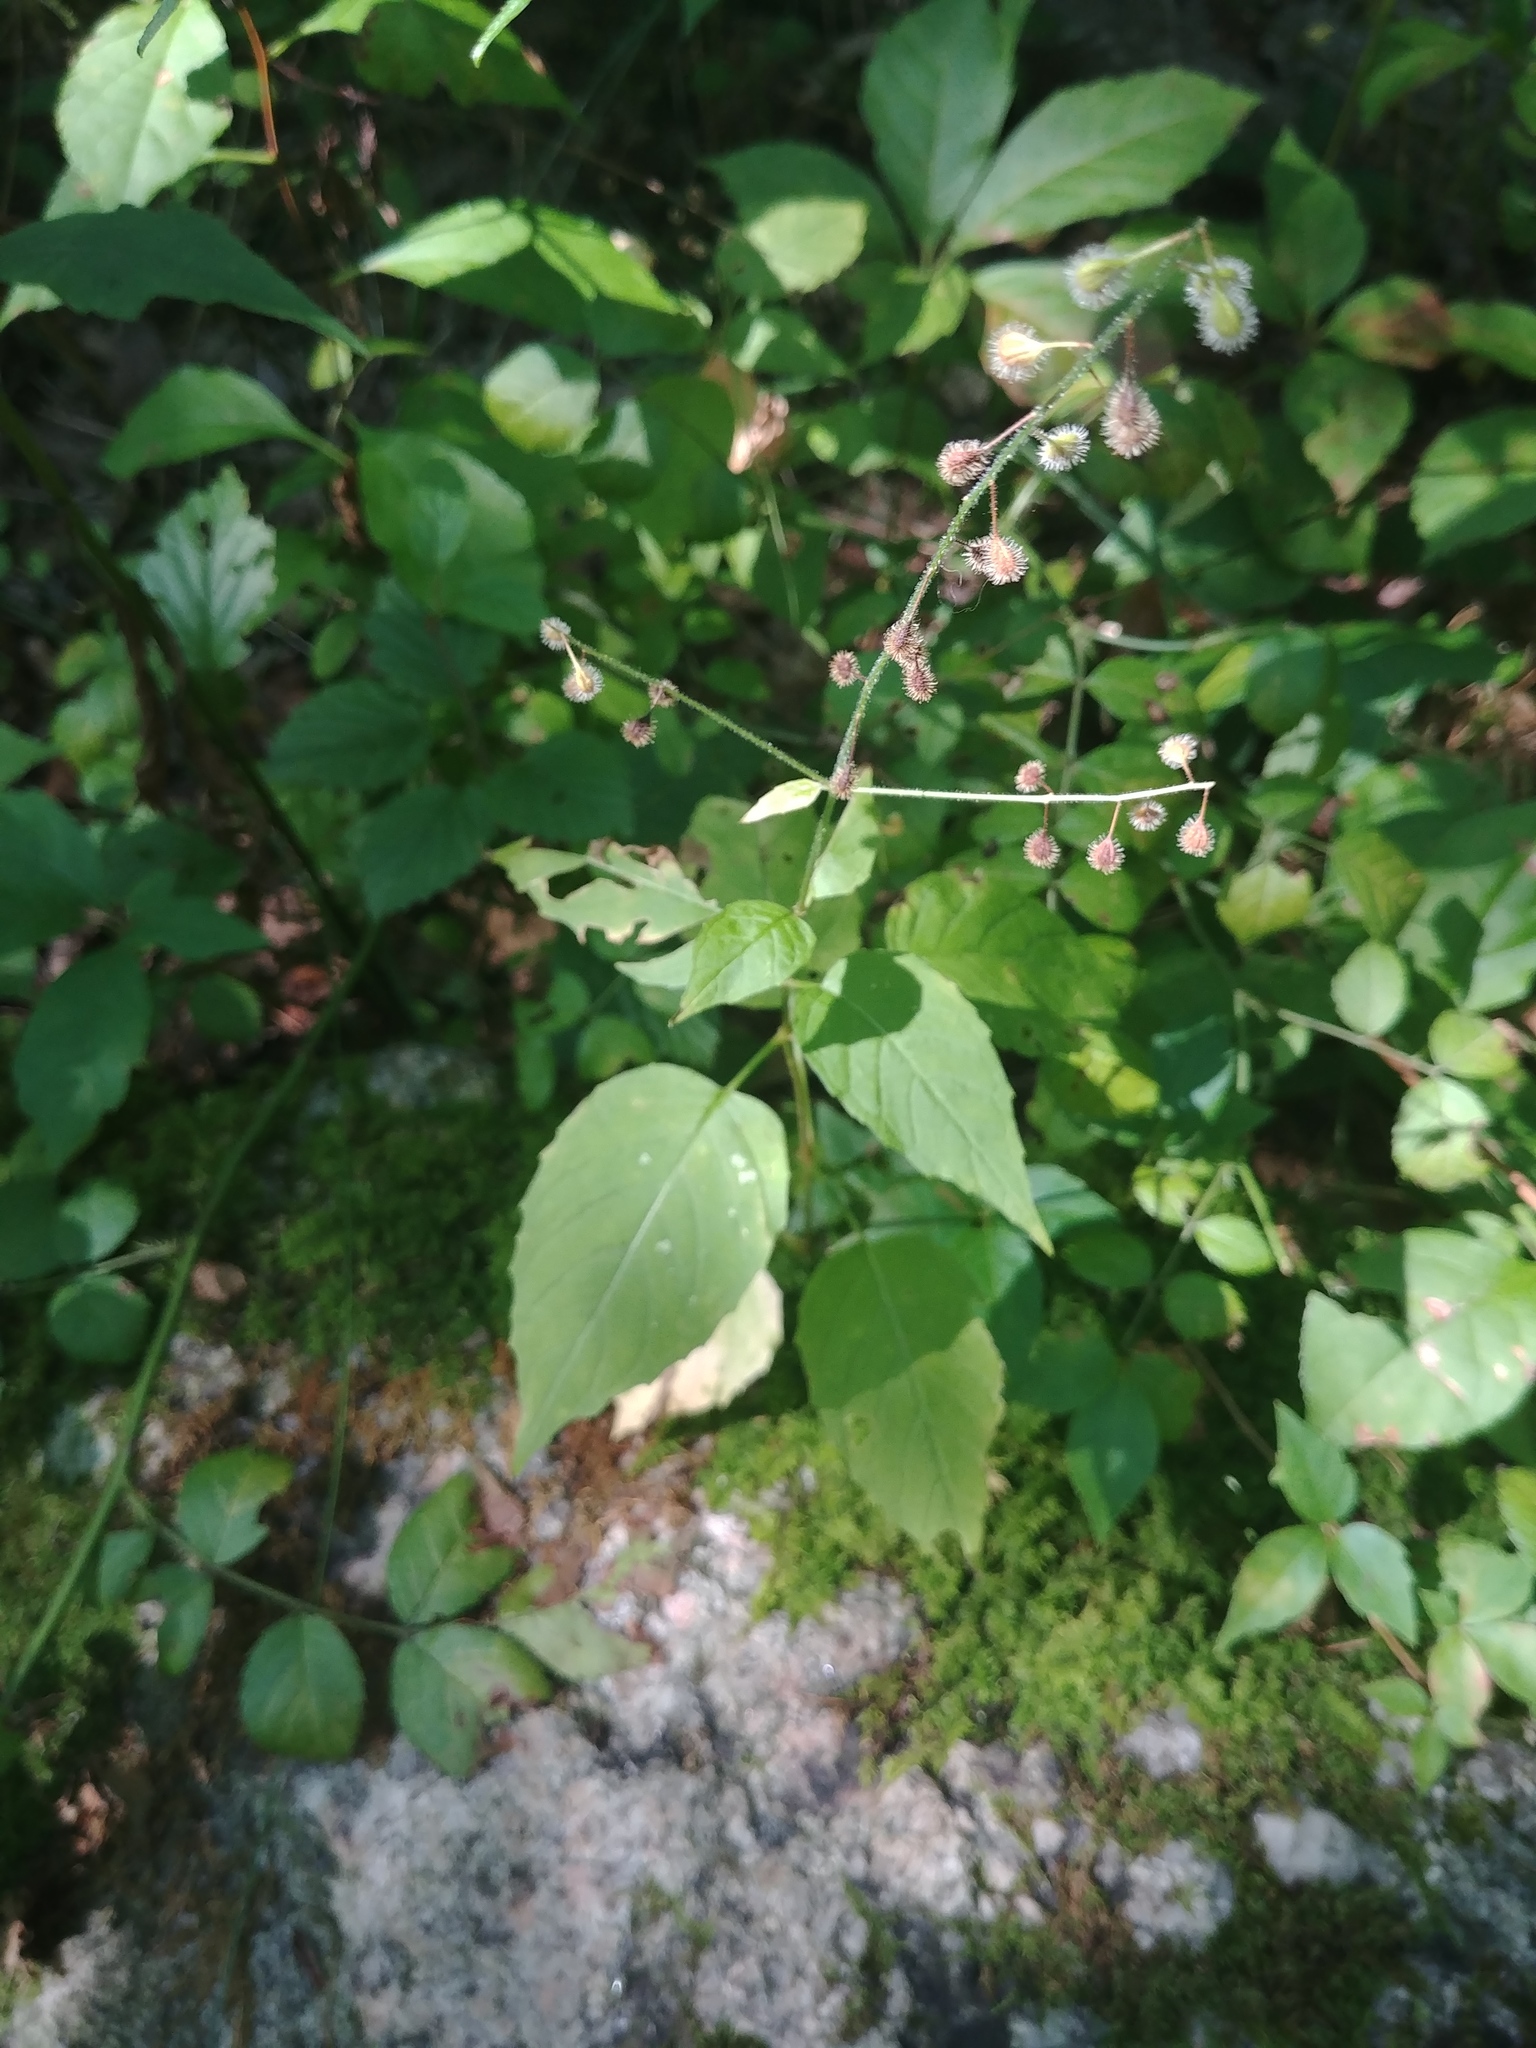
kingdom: Plantae
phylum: Tracheophyta
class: Magnoliopsida
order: Myrtales
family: Onagraceae
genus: Circaea
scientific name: Circaea canadensis
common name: Broad-leaved enchanter's nightshade
